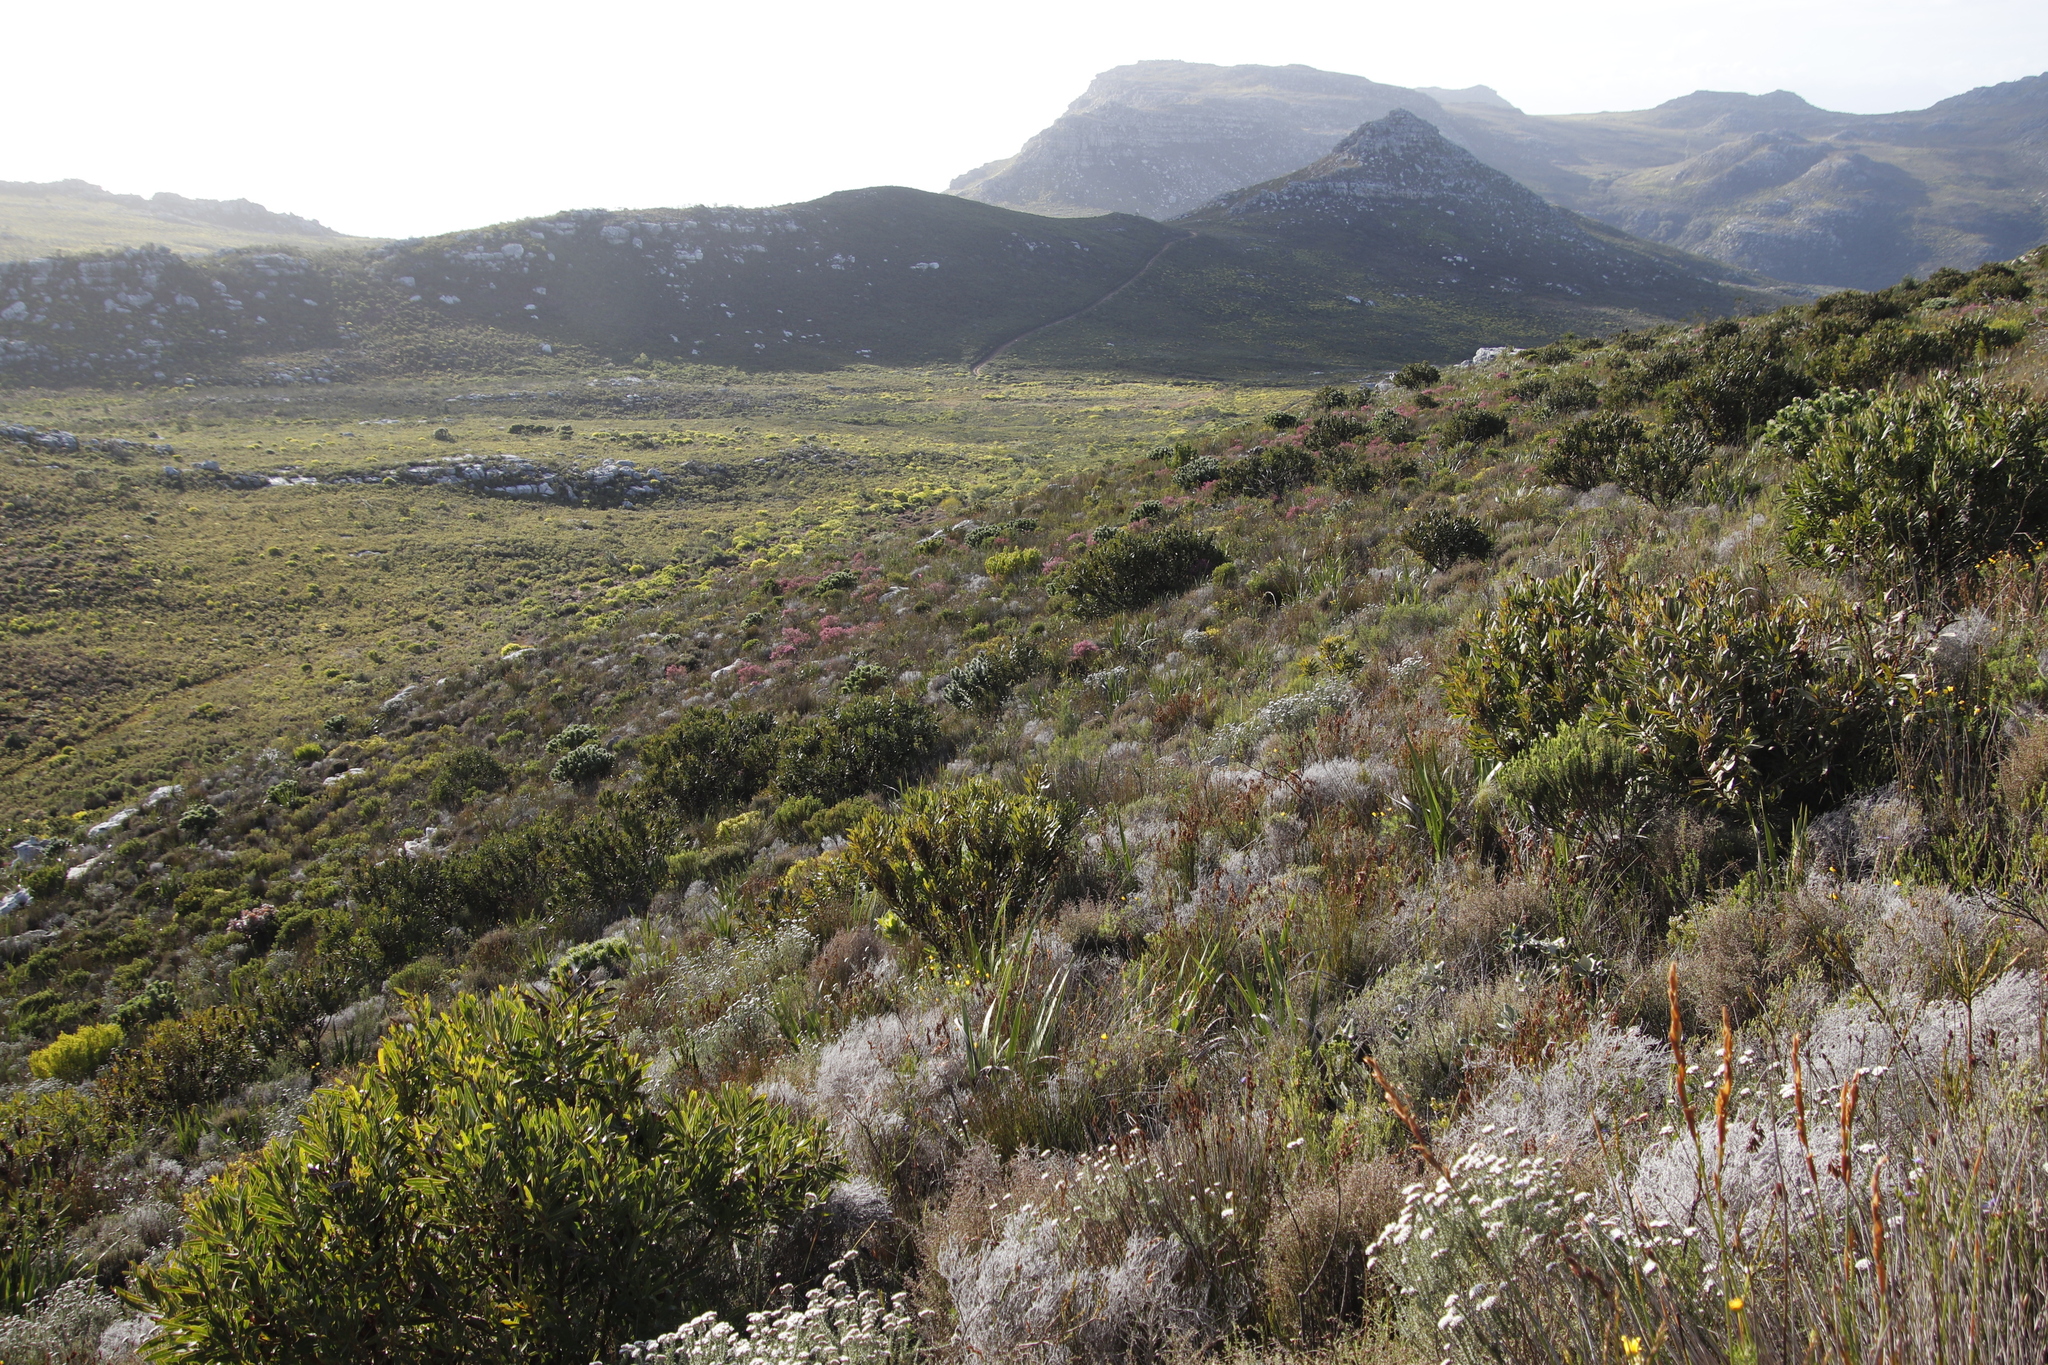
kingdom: Plantae
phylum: Tracheophyta
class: Magnoliopsida
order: Proteales
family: Proteaceae
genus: Protea
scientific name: Protea lepidocarpodendron
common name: Black-bearded protea
